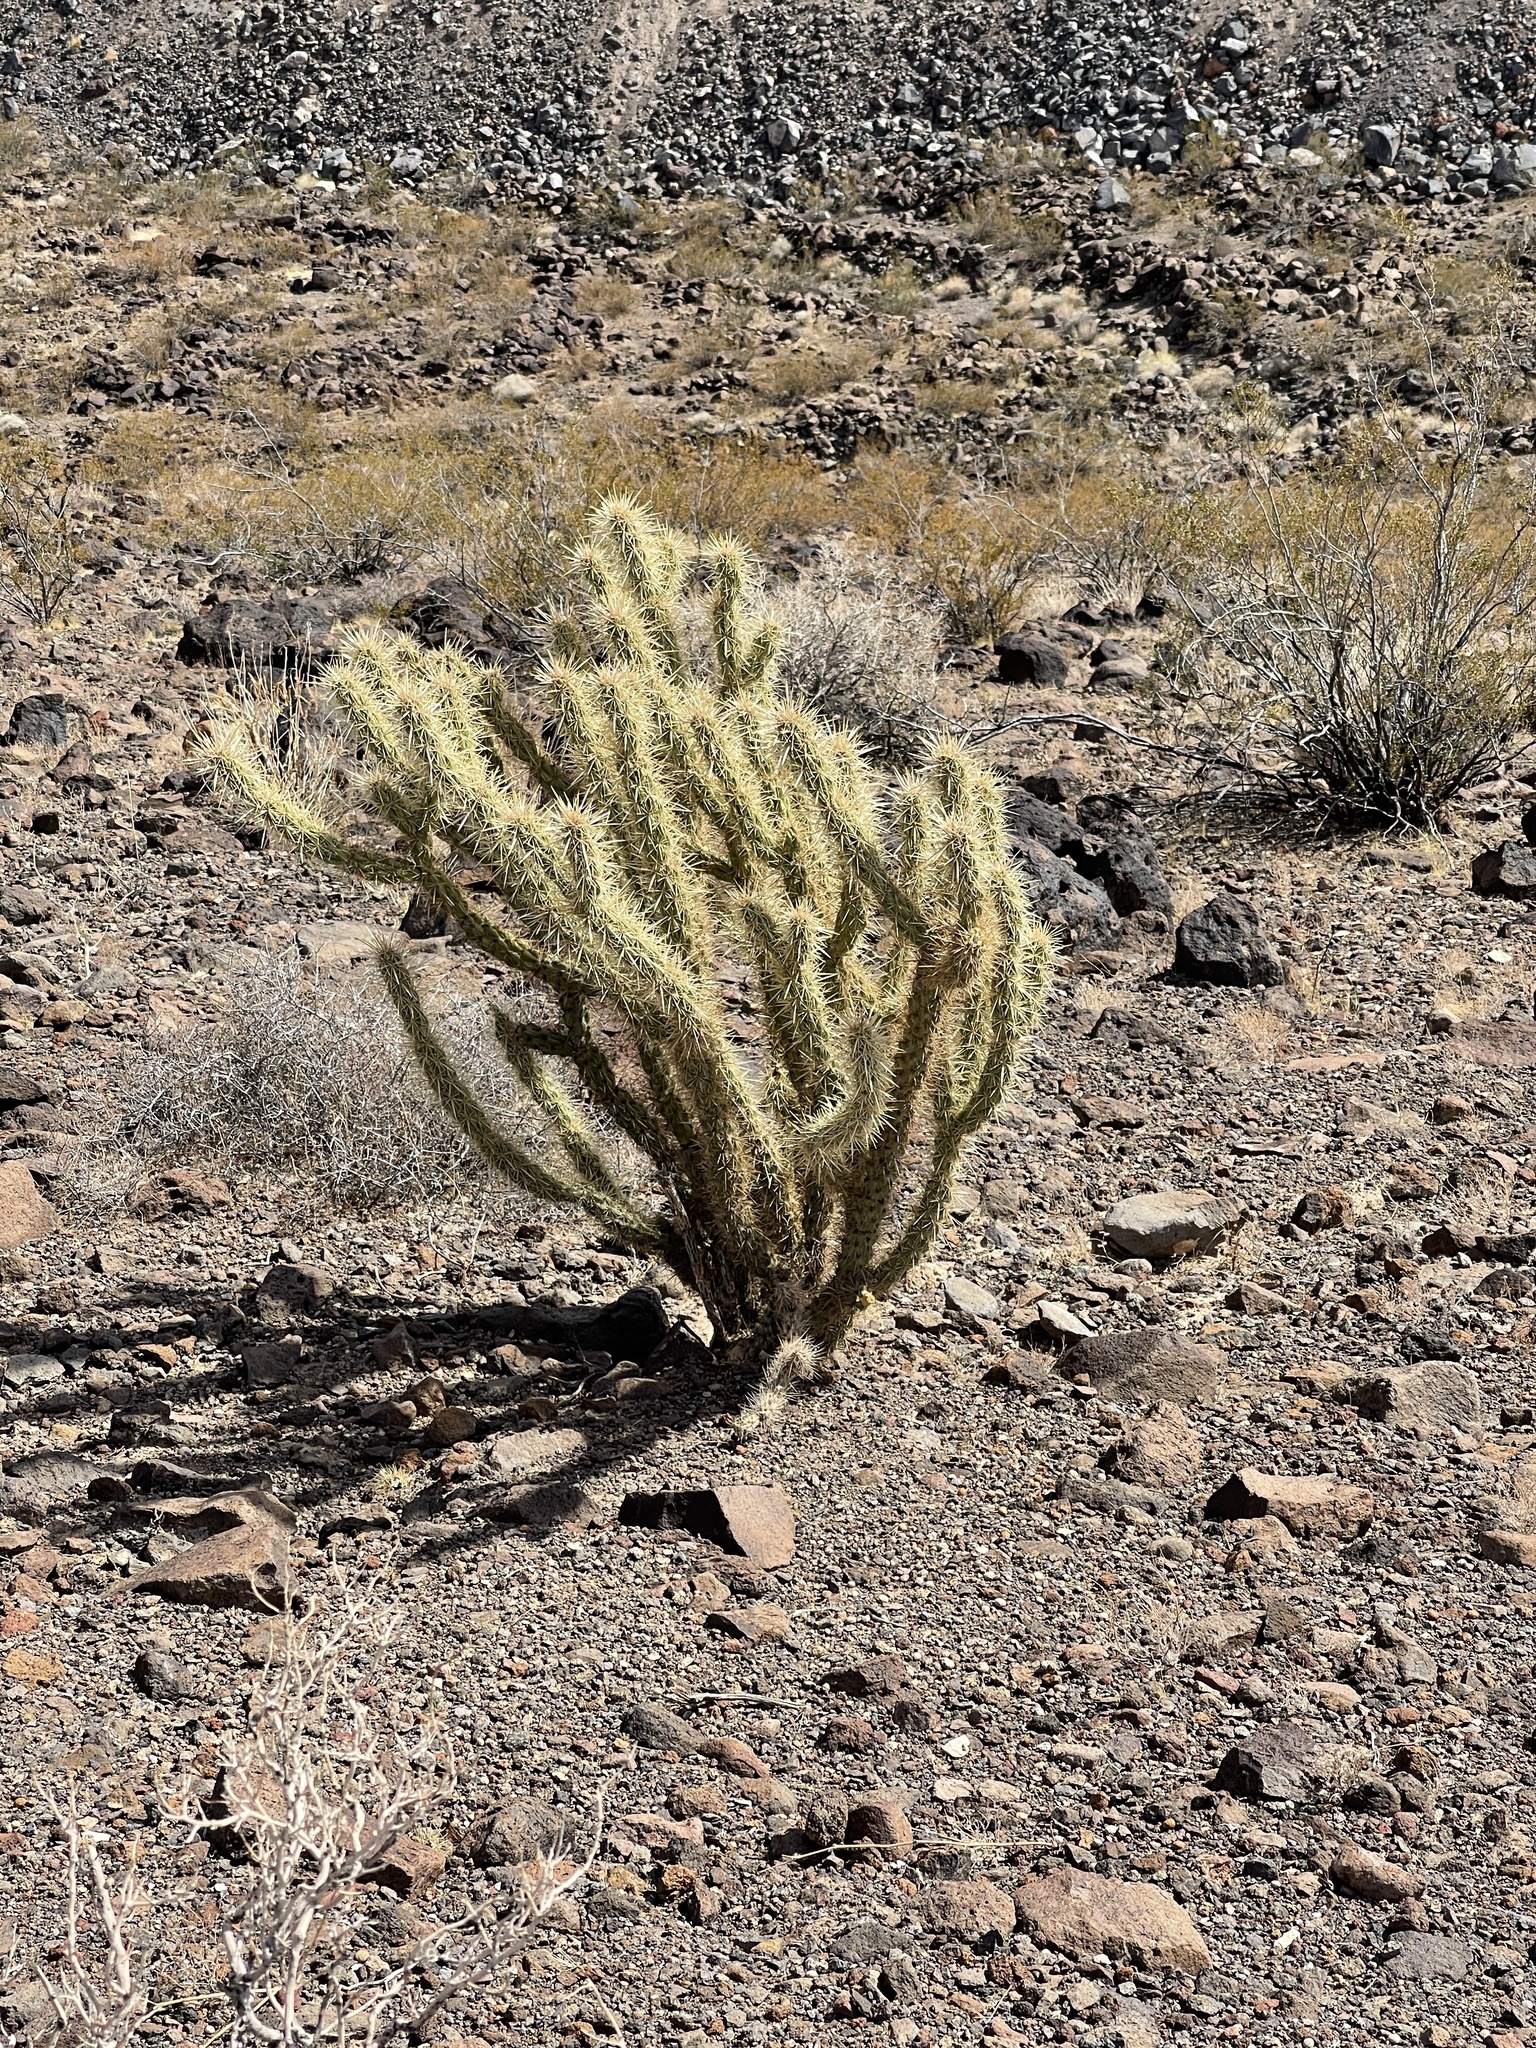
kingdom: Plantae
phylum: Tracheophyta
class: Magnoliopsida
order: Caryophyllales
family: Cactaceae
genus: Cylindropuntia
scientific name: Cylindropuntia acanthocarpa
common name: Buckhorn cholla
